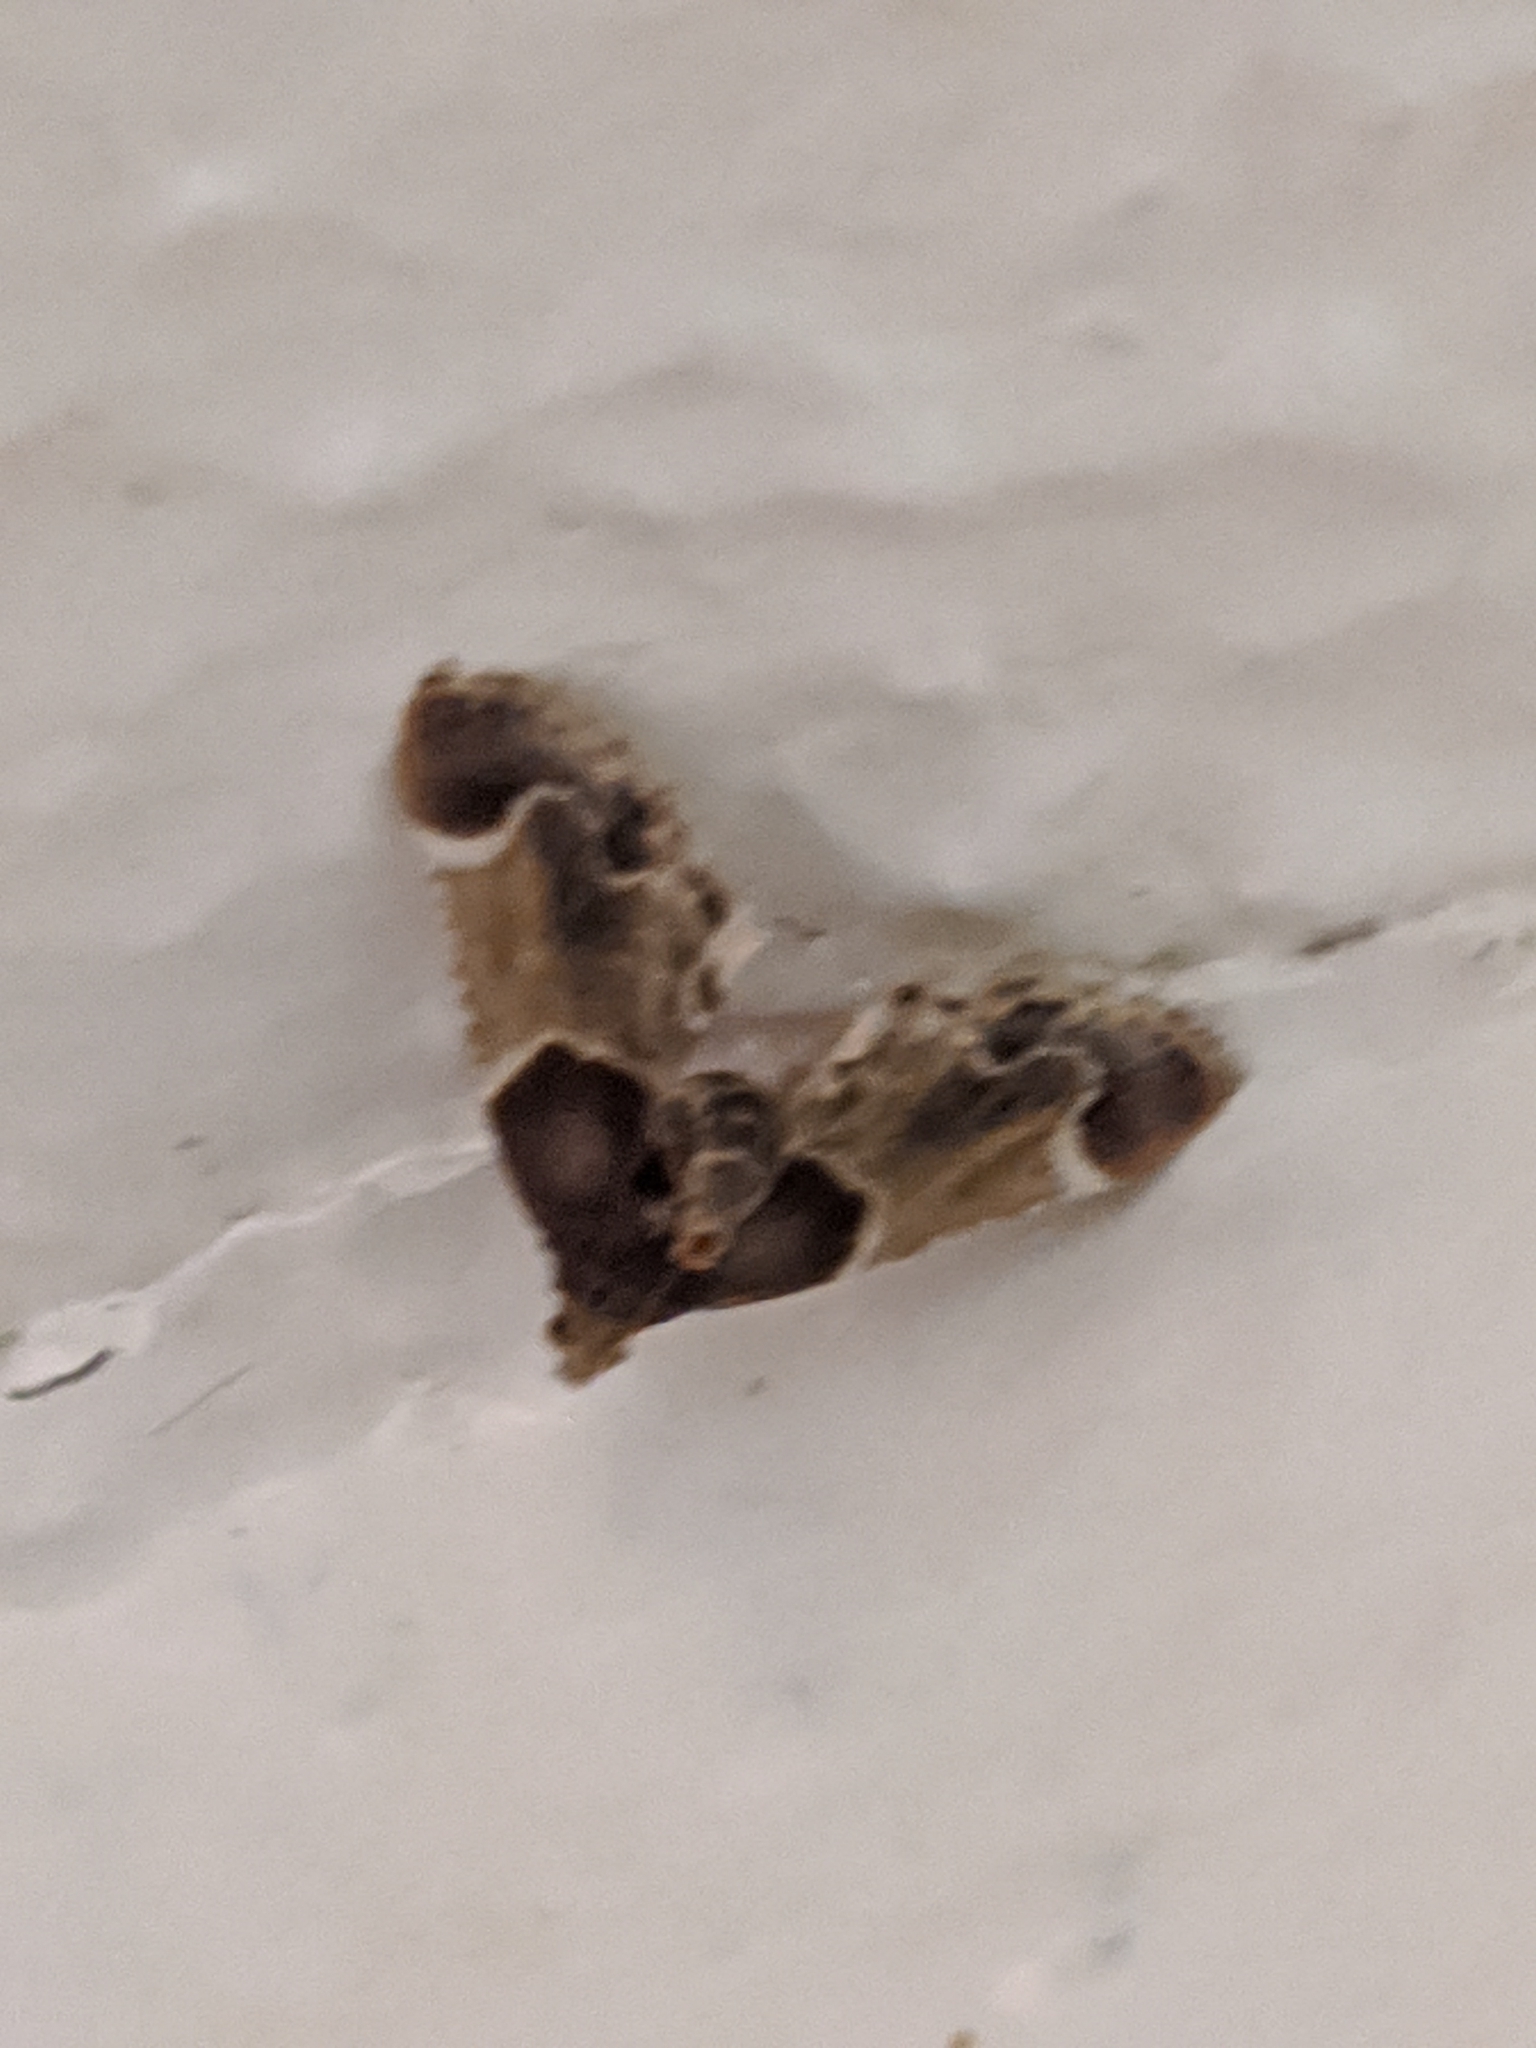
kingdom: Animalia
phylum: Arthropoda
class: Insecta
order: Lepidoptera
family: Pyralidae
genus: Pyralis
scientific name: Pyralis farinalis
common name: Meal moth
